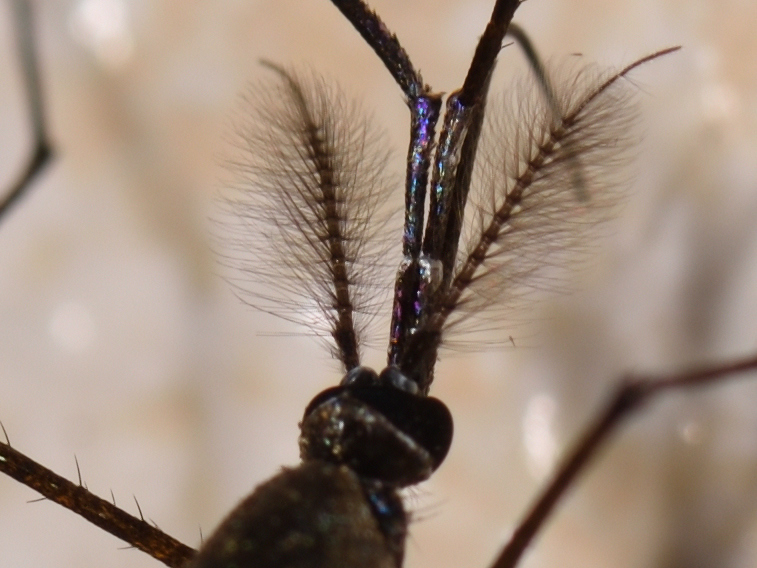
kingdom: Animalia
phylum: Arthropoda
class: Insecta
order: Diptera
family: Culicidae
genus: Toxorhynchites
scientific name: Toxorhynchites brevipalpis
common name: Mosquito
